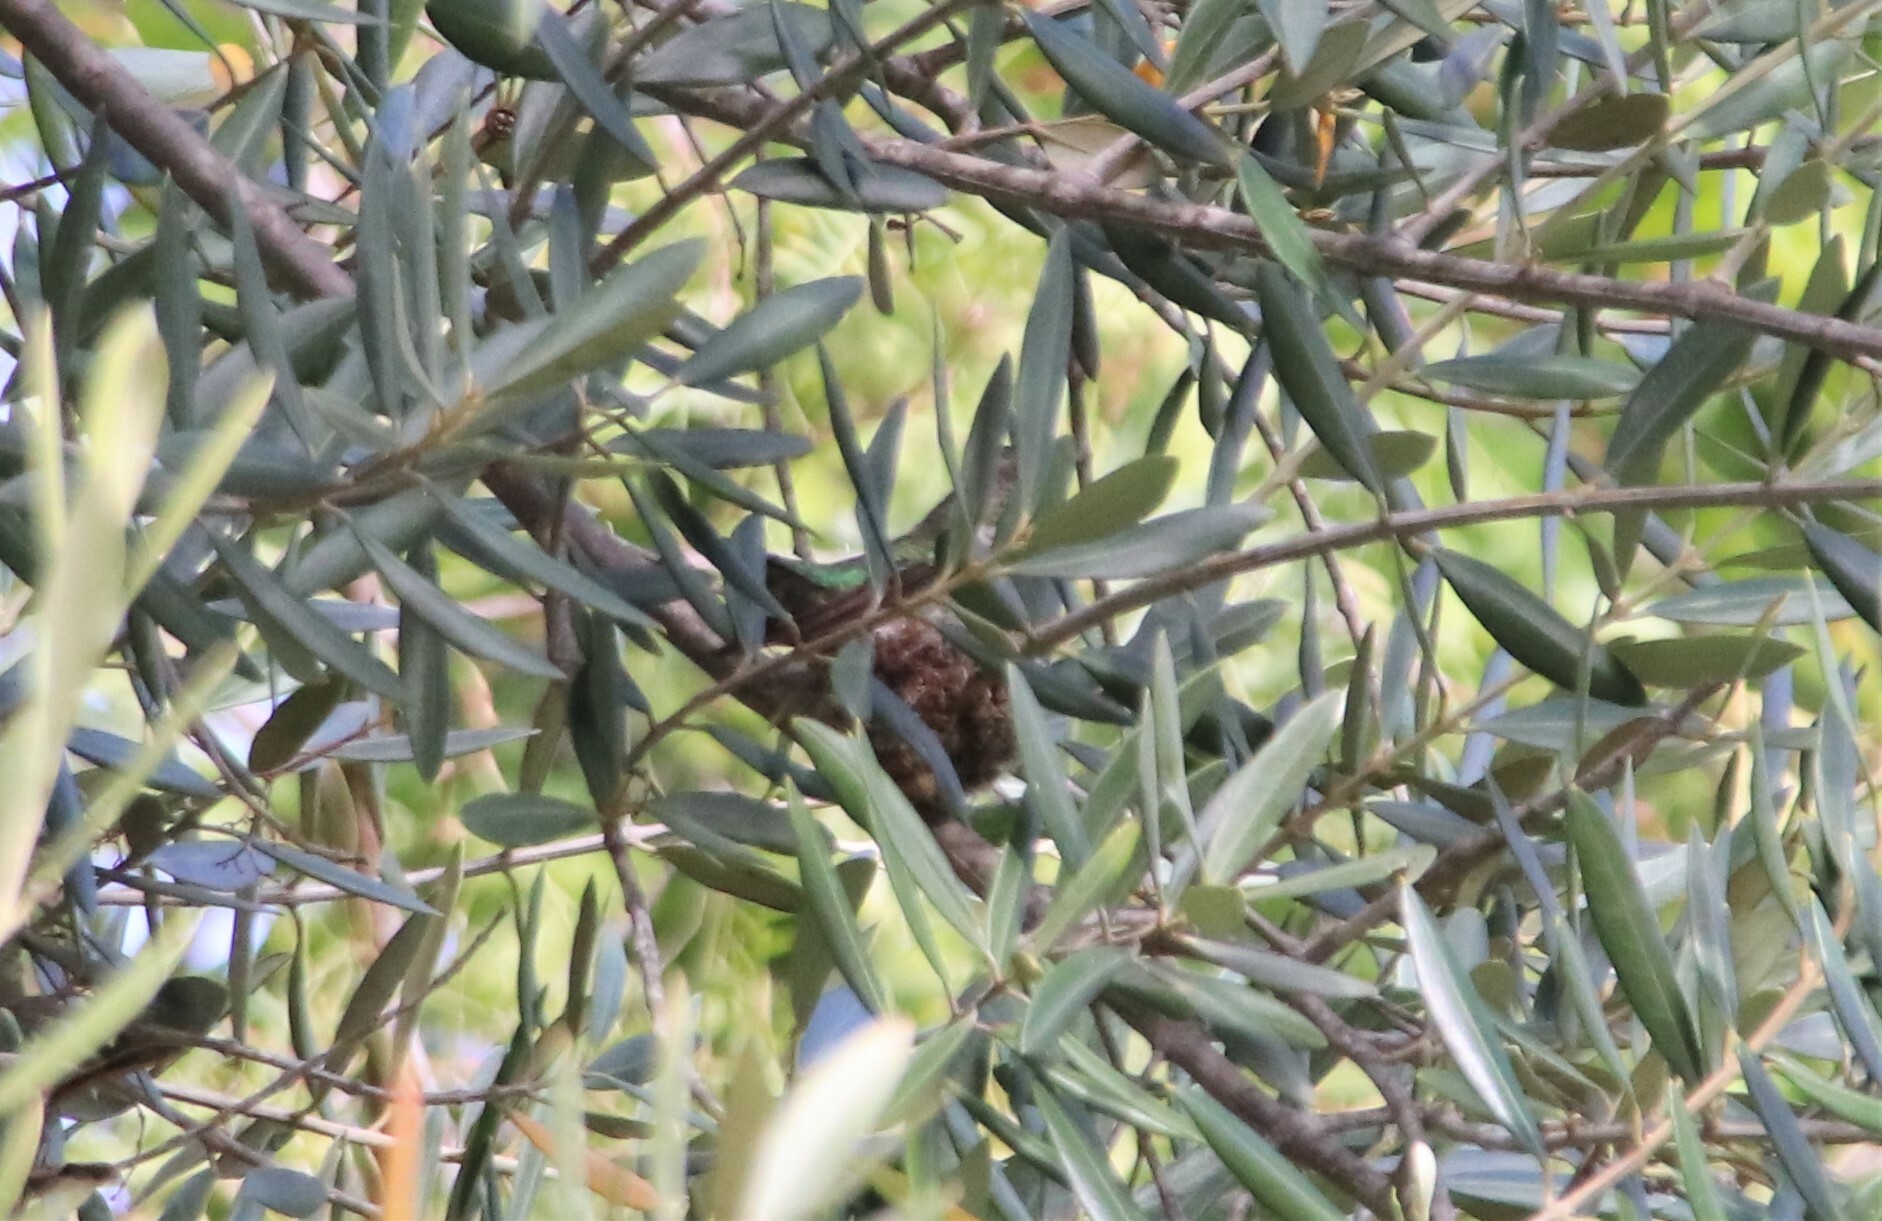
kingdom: Animalia
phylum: Chordata
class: Aves
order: Apodiformes
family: Trochilidae
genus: Calypte
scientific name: Calypte anna
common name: Anna's hummingbird
